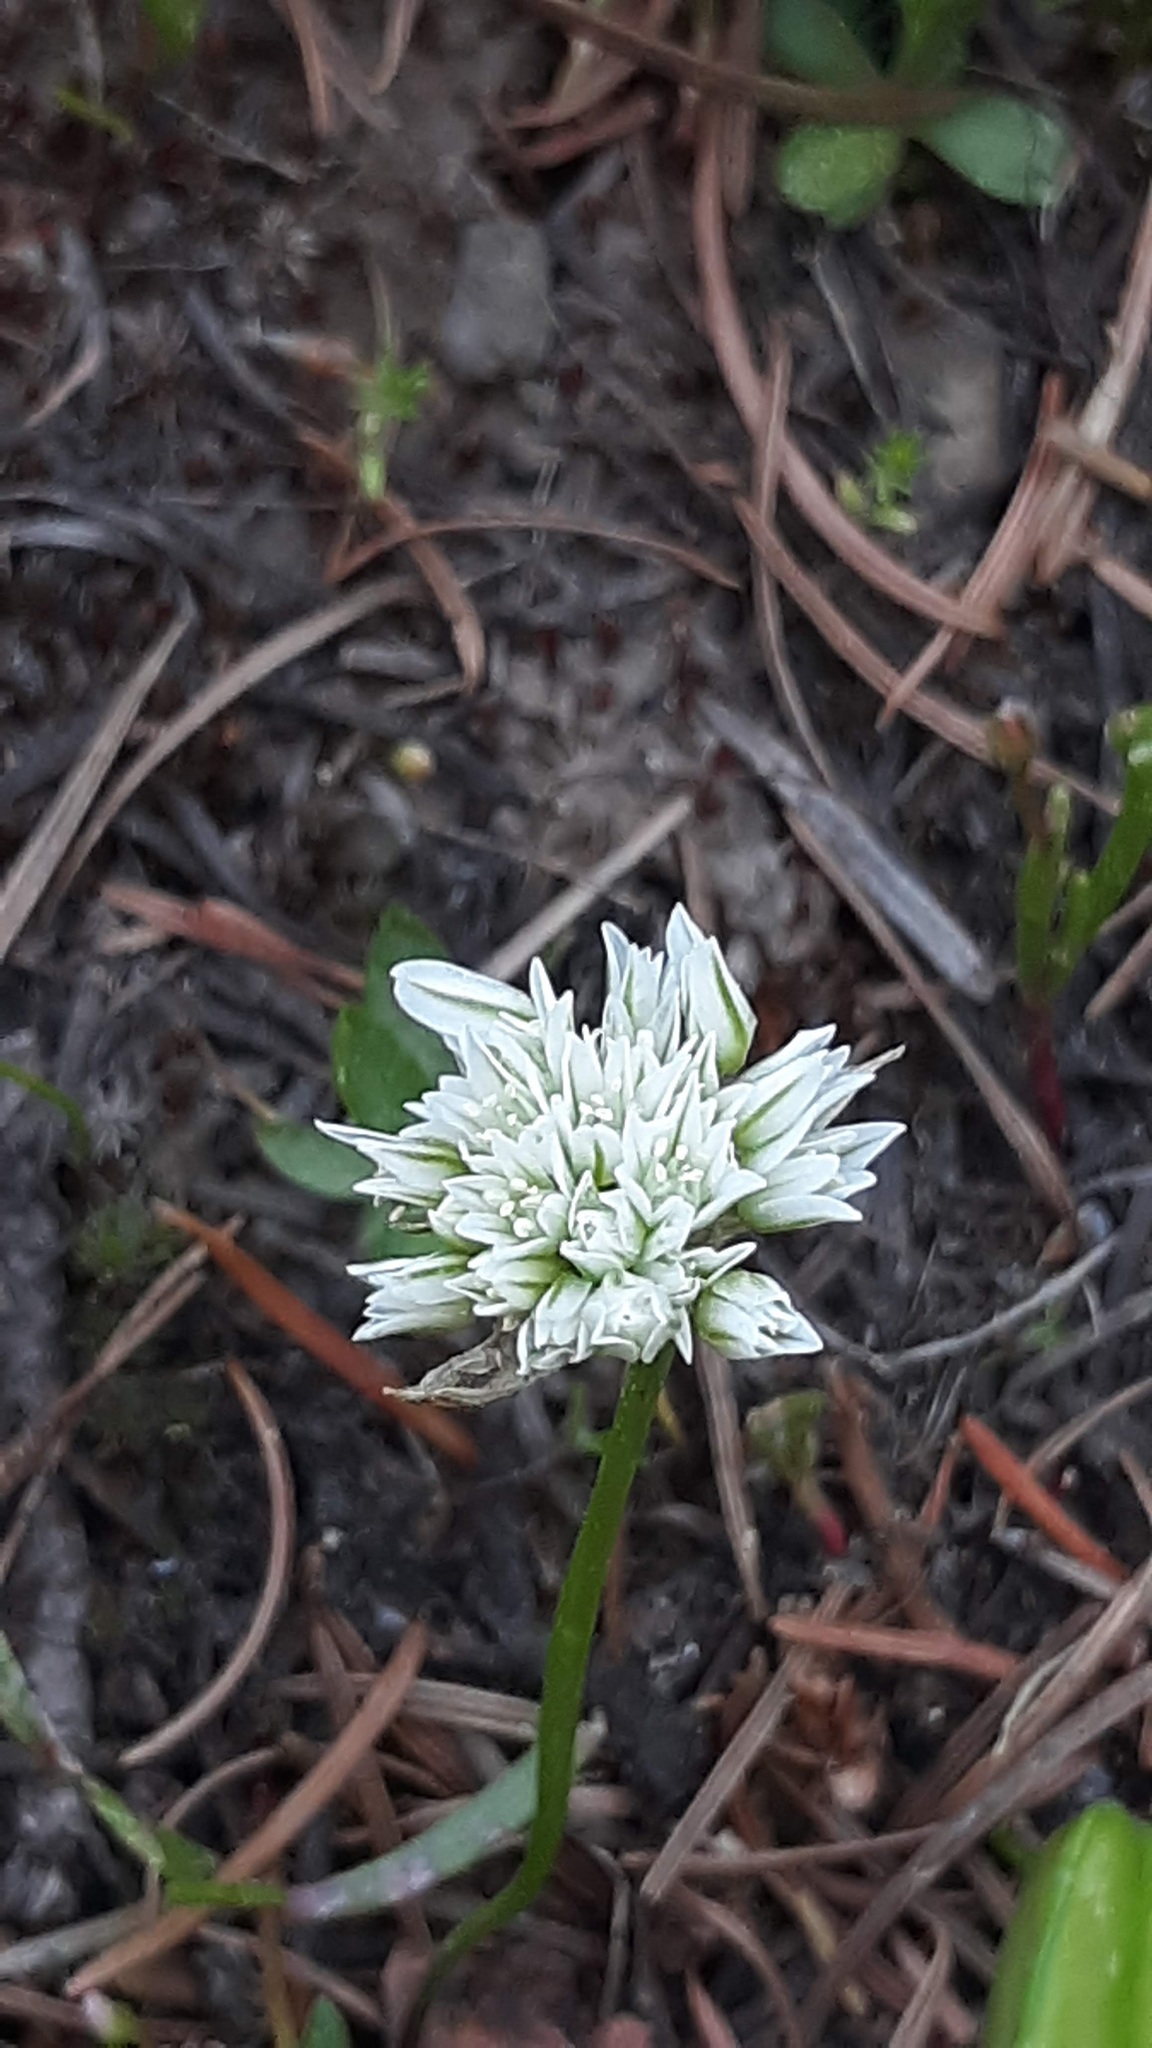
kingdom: Plantae
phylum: Tracheophyta
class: Liliopsida
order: Asparagales
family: Amaryllidaceae
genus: Allium
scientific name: Allium fibrillum
